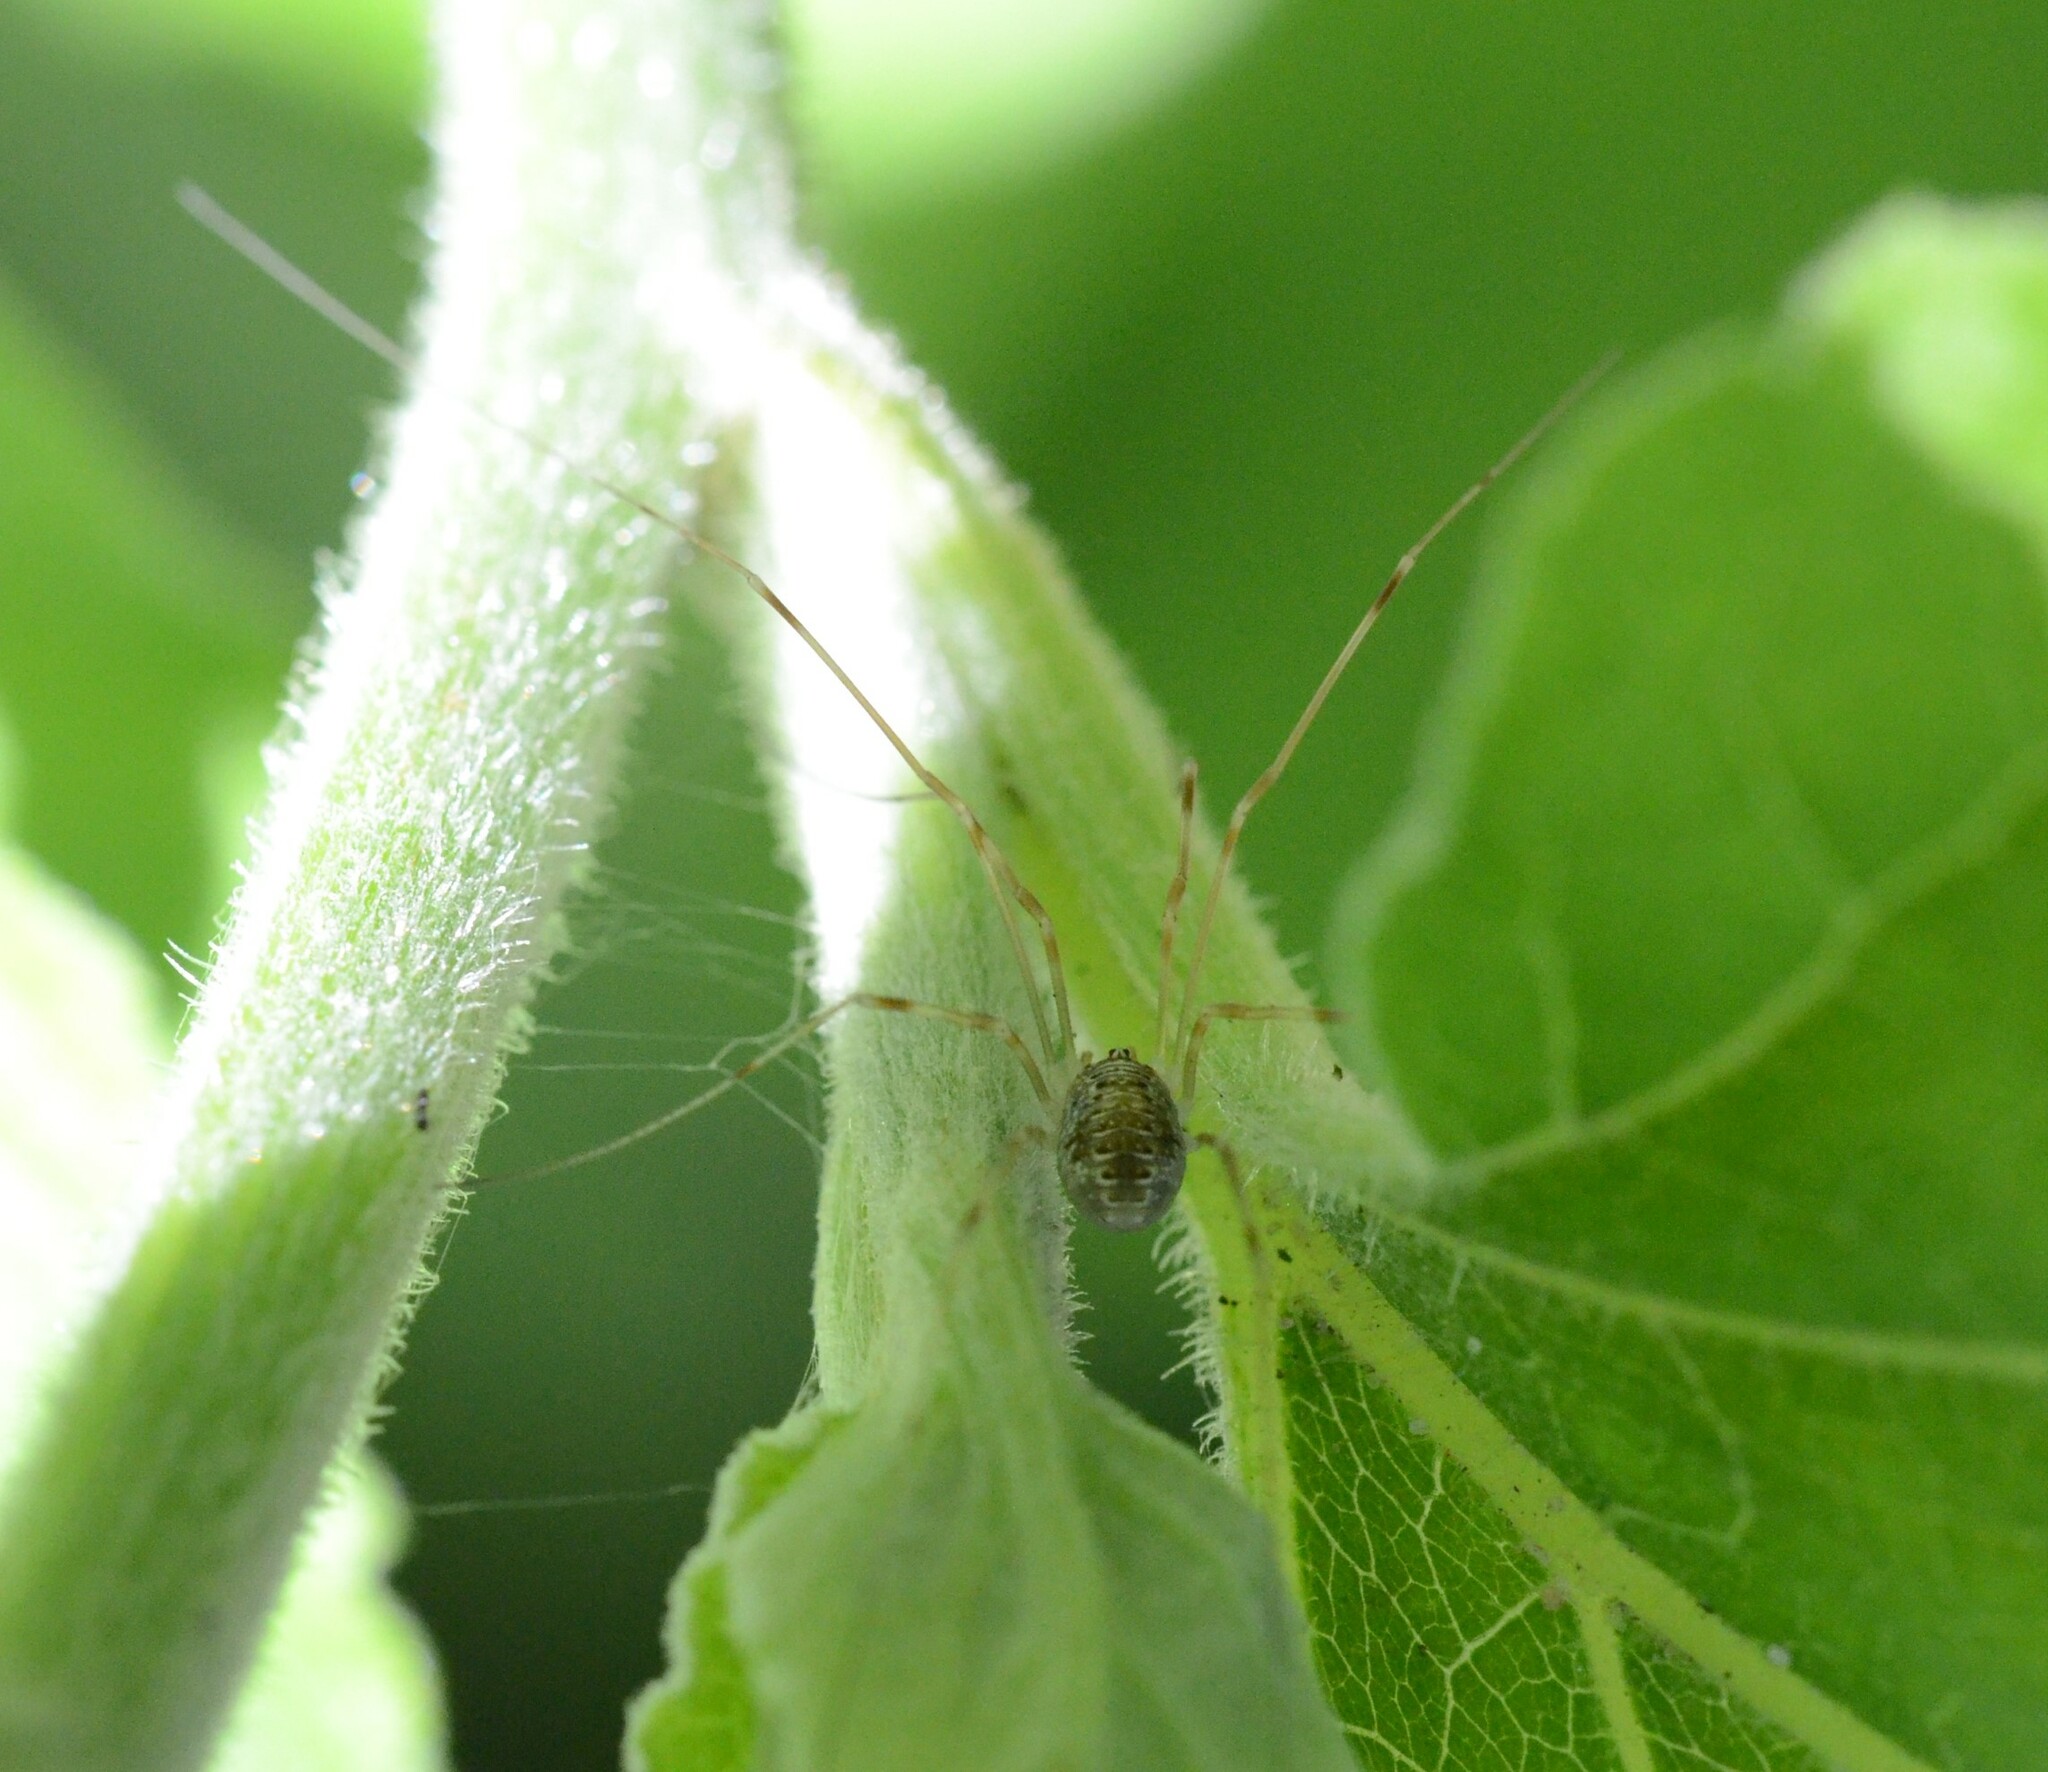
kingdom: Animalia
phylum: Arthropoda
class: Arachnida
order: Opiliones
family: Phalangiidae
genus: Opilio
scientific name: Opilio canestrinii
